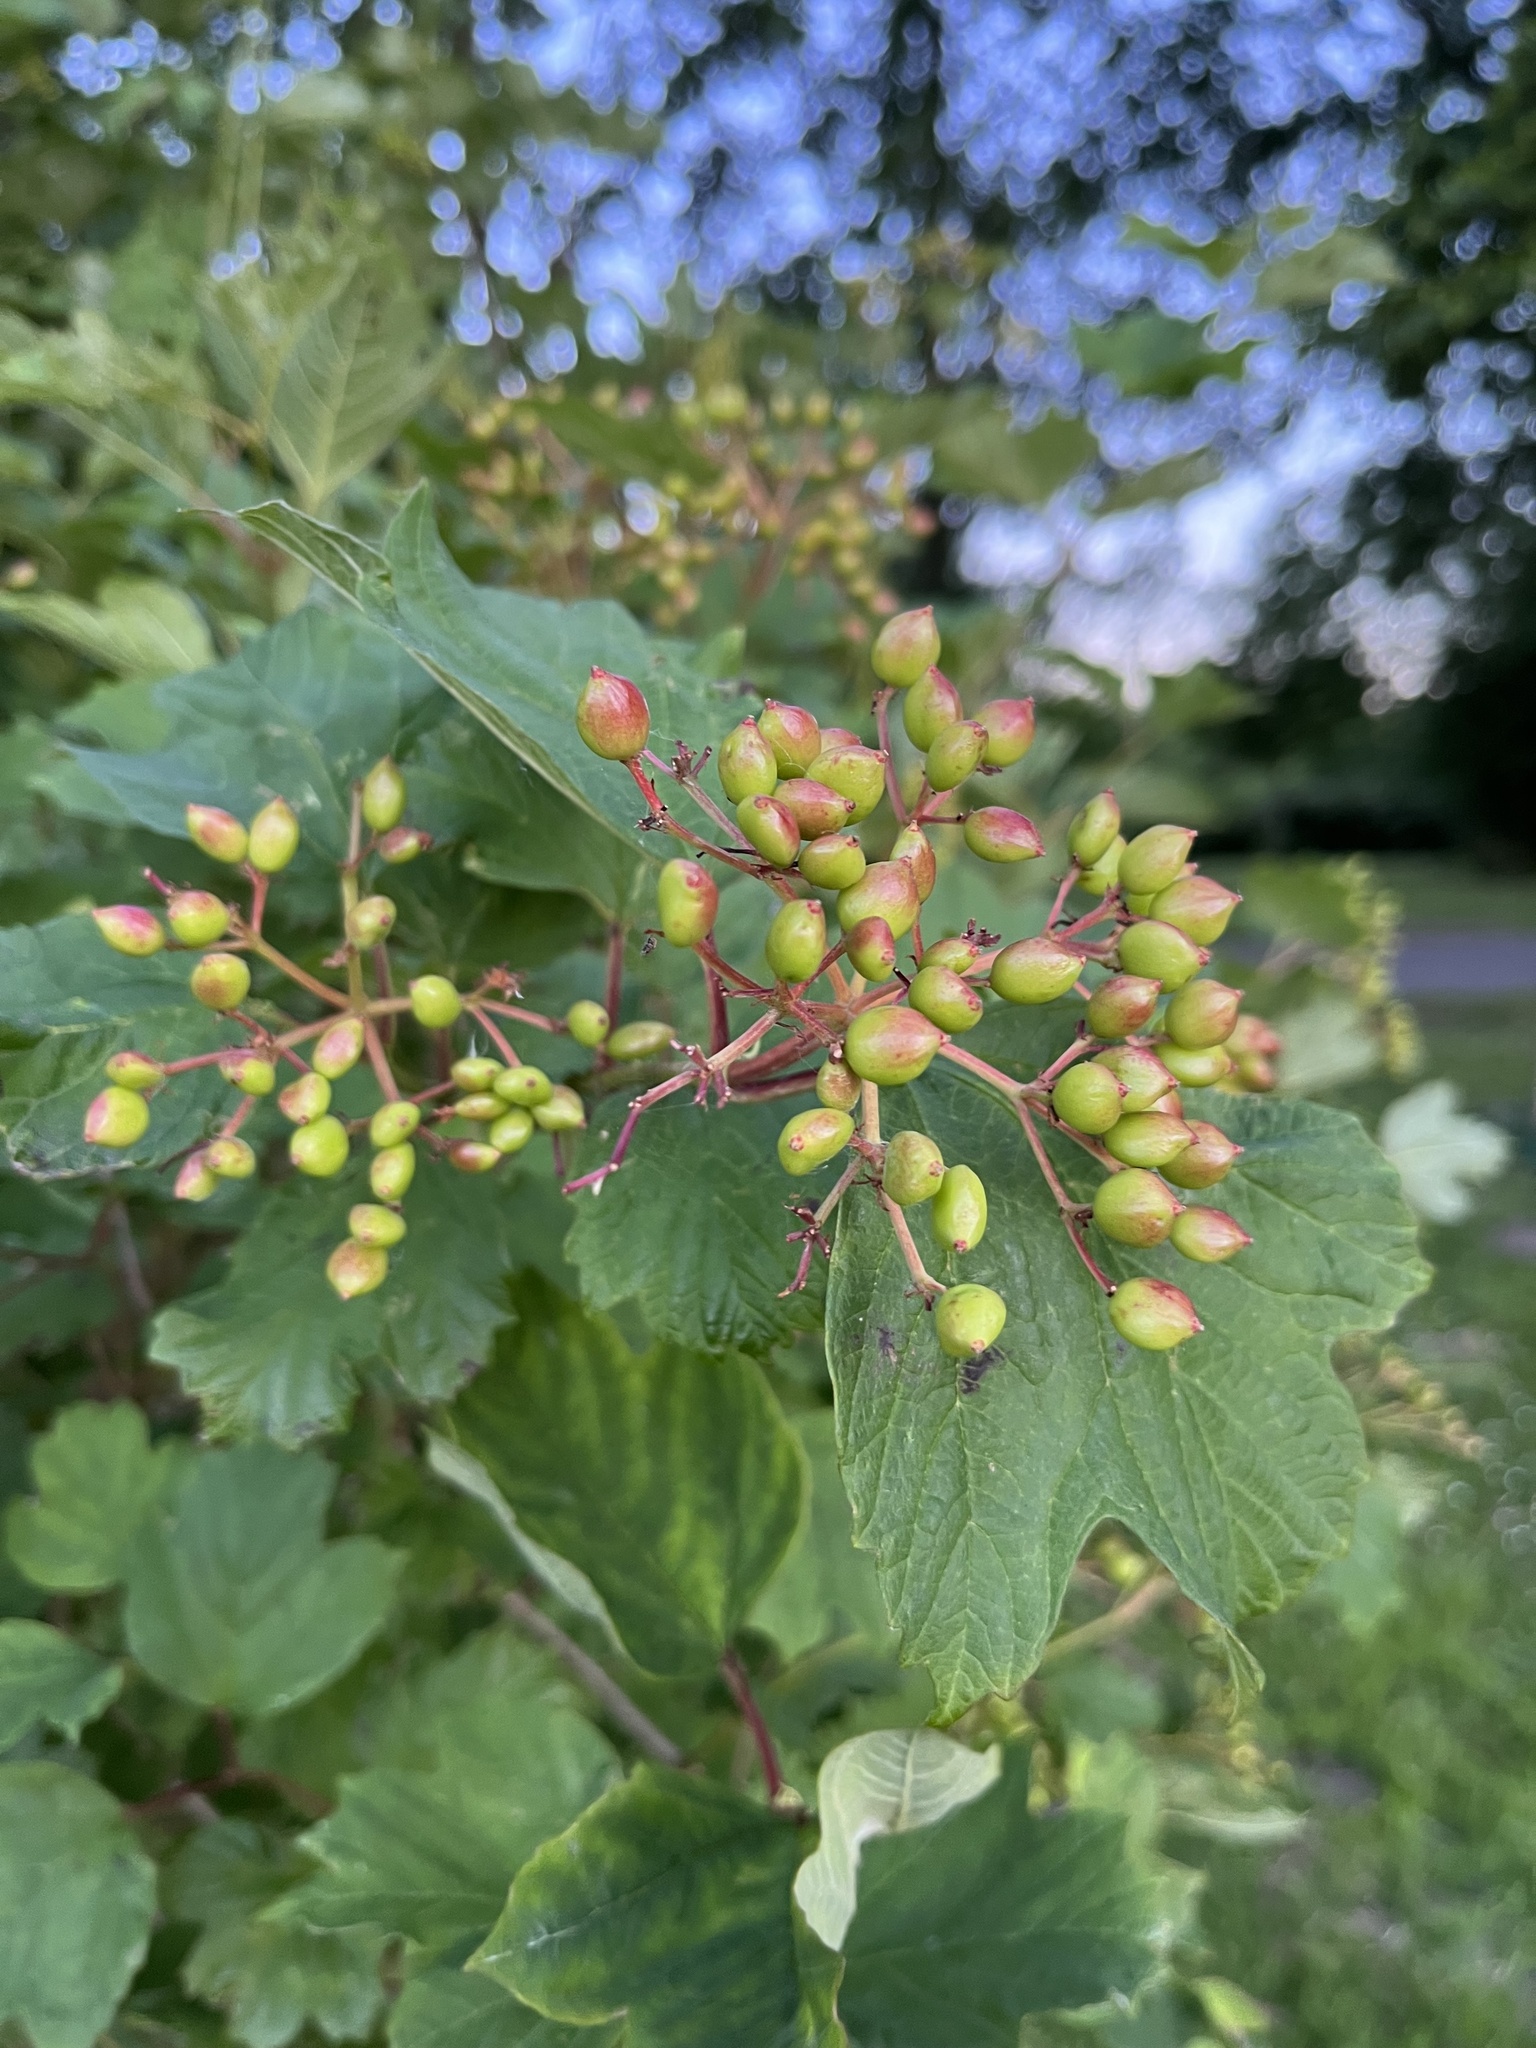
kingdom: Plantae
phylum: Tracheophyta
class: Magnoliopsida
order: Dipsacales
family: Viburnaceae
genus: Viburnum
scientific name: Viburnum opulus
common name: Guelder-rose
